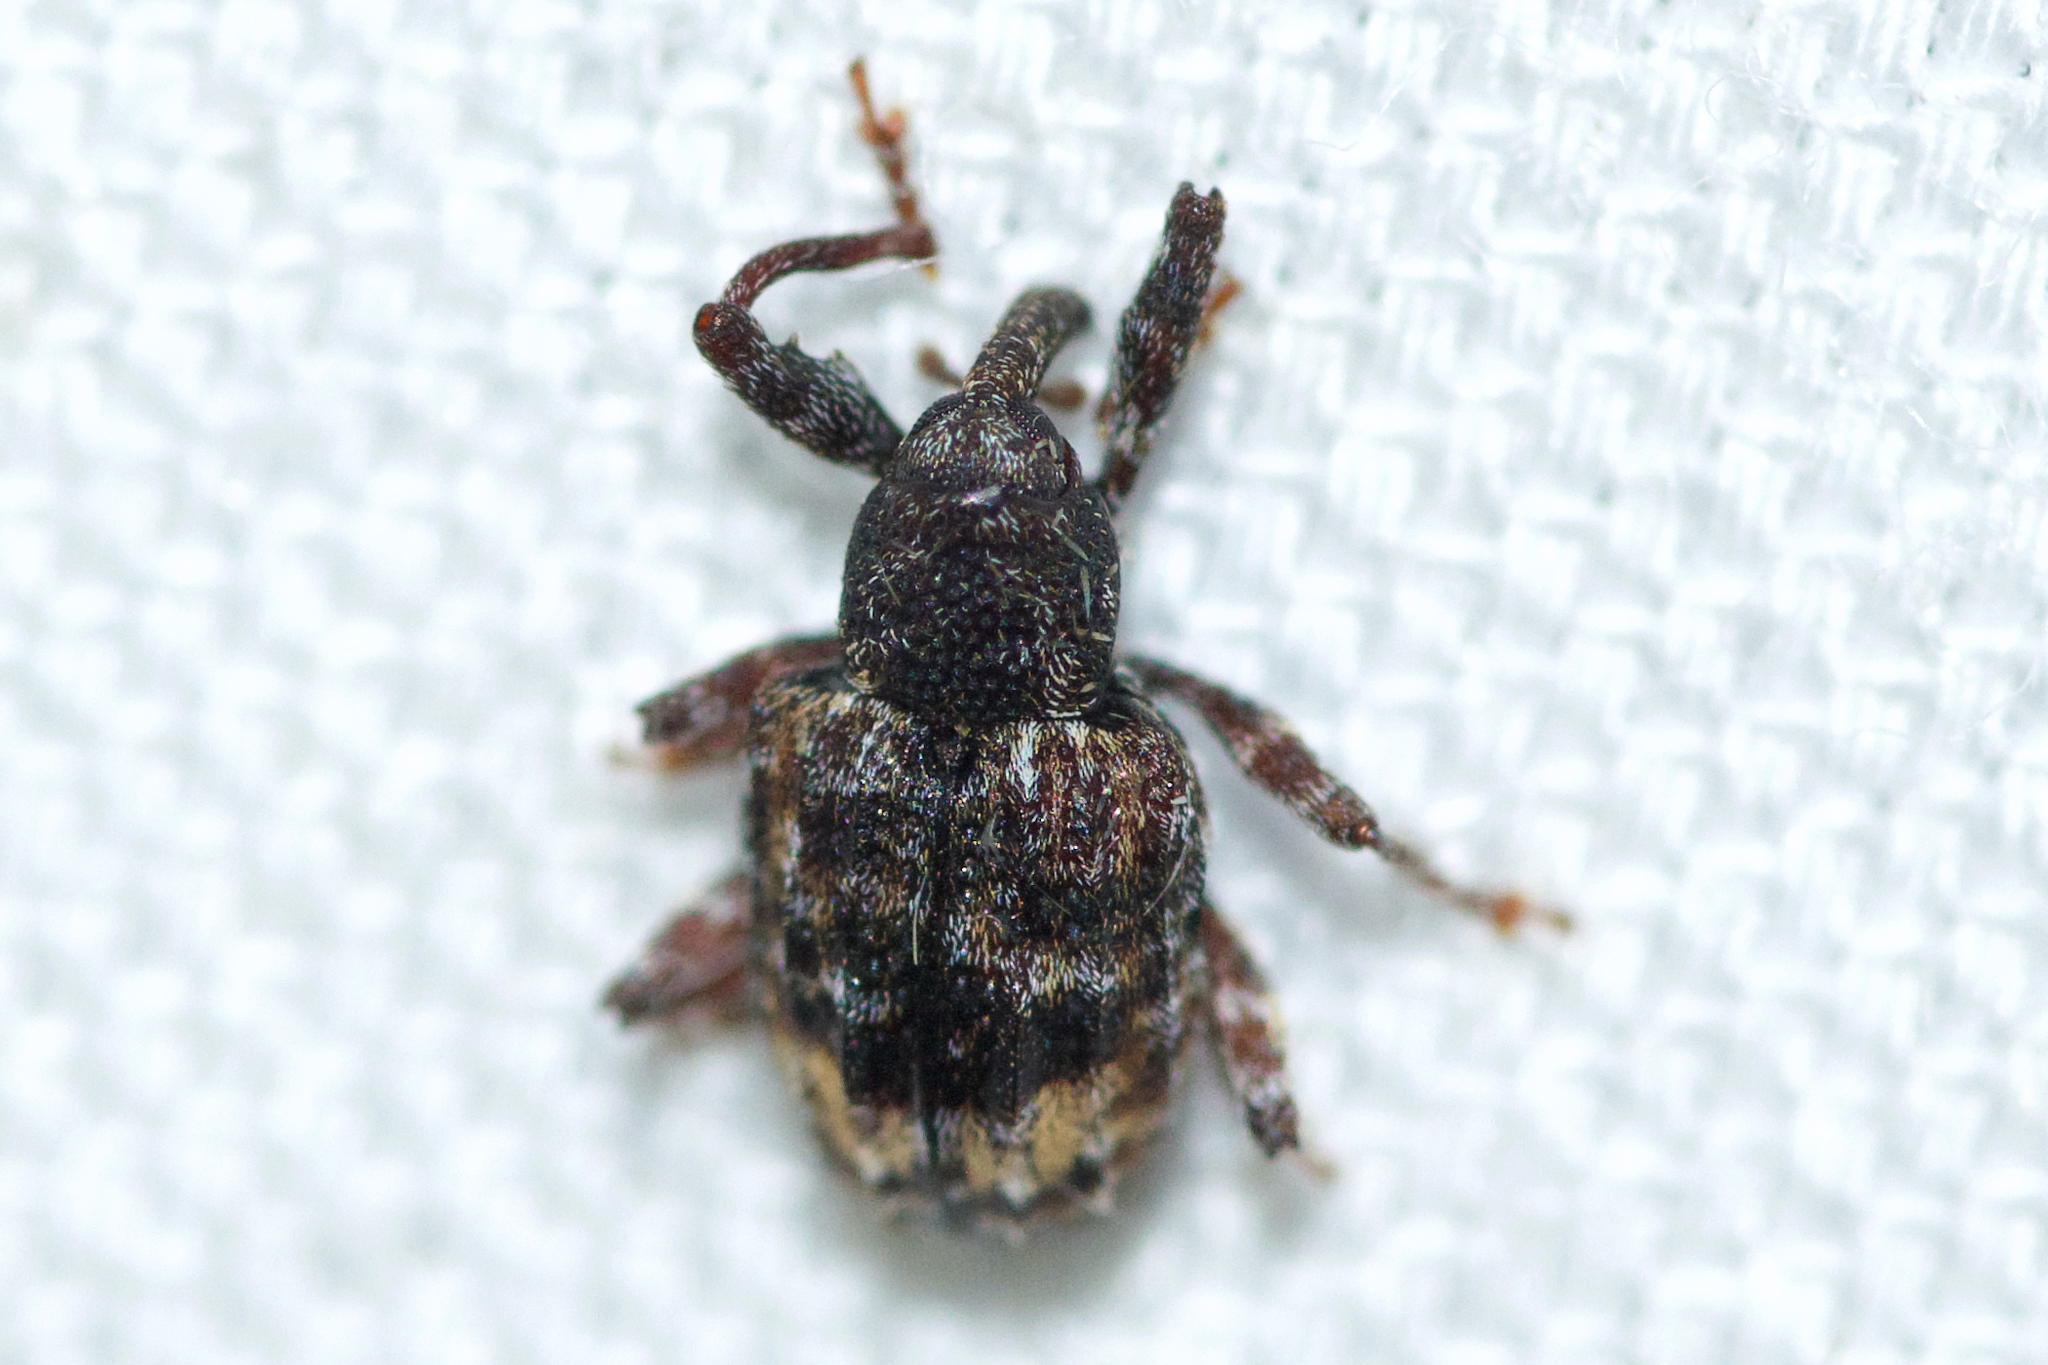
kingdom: Animalia
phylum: Arthropoda
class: Insecta
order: Coleoptera
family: Curculionidae
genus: Conotrachelus
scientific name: Conotrachelus schoofi
